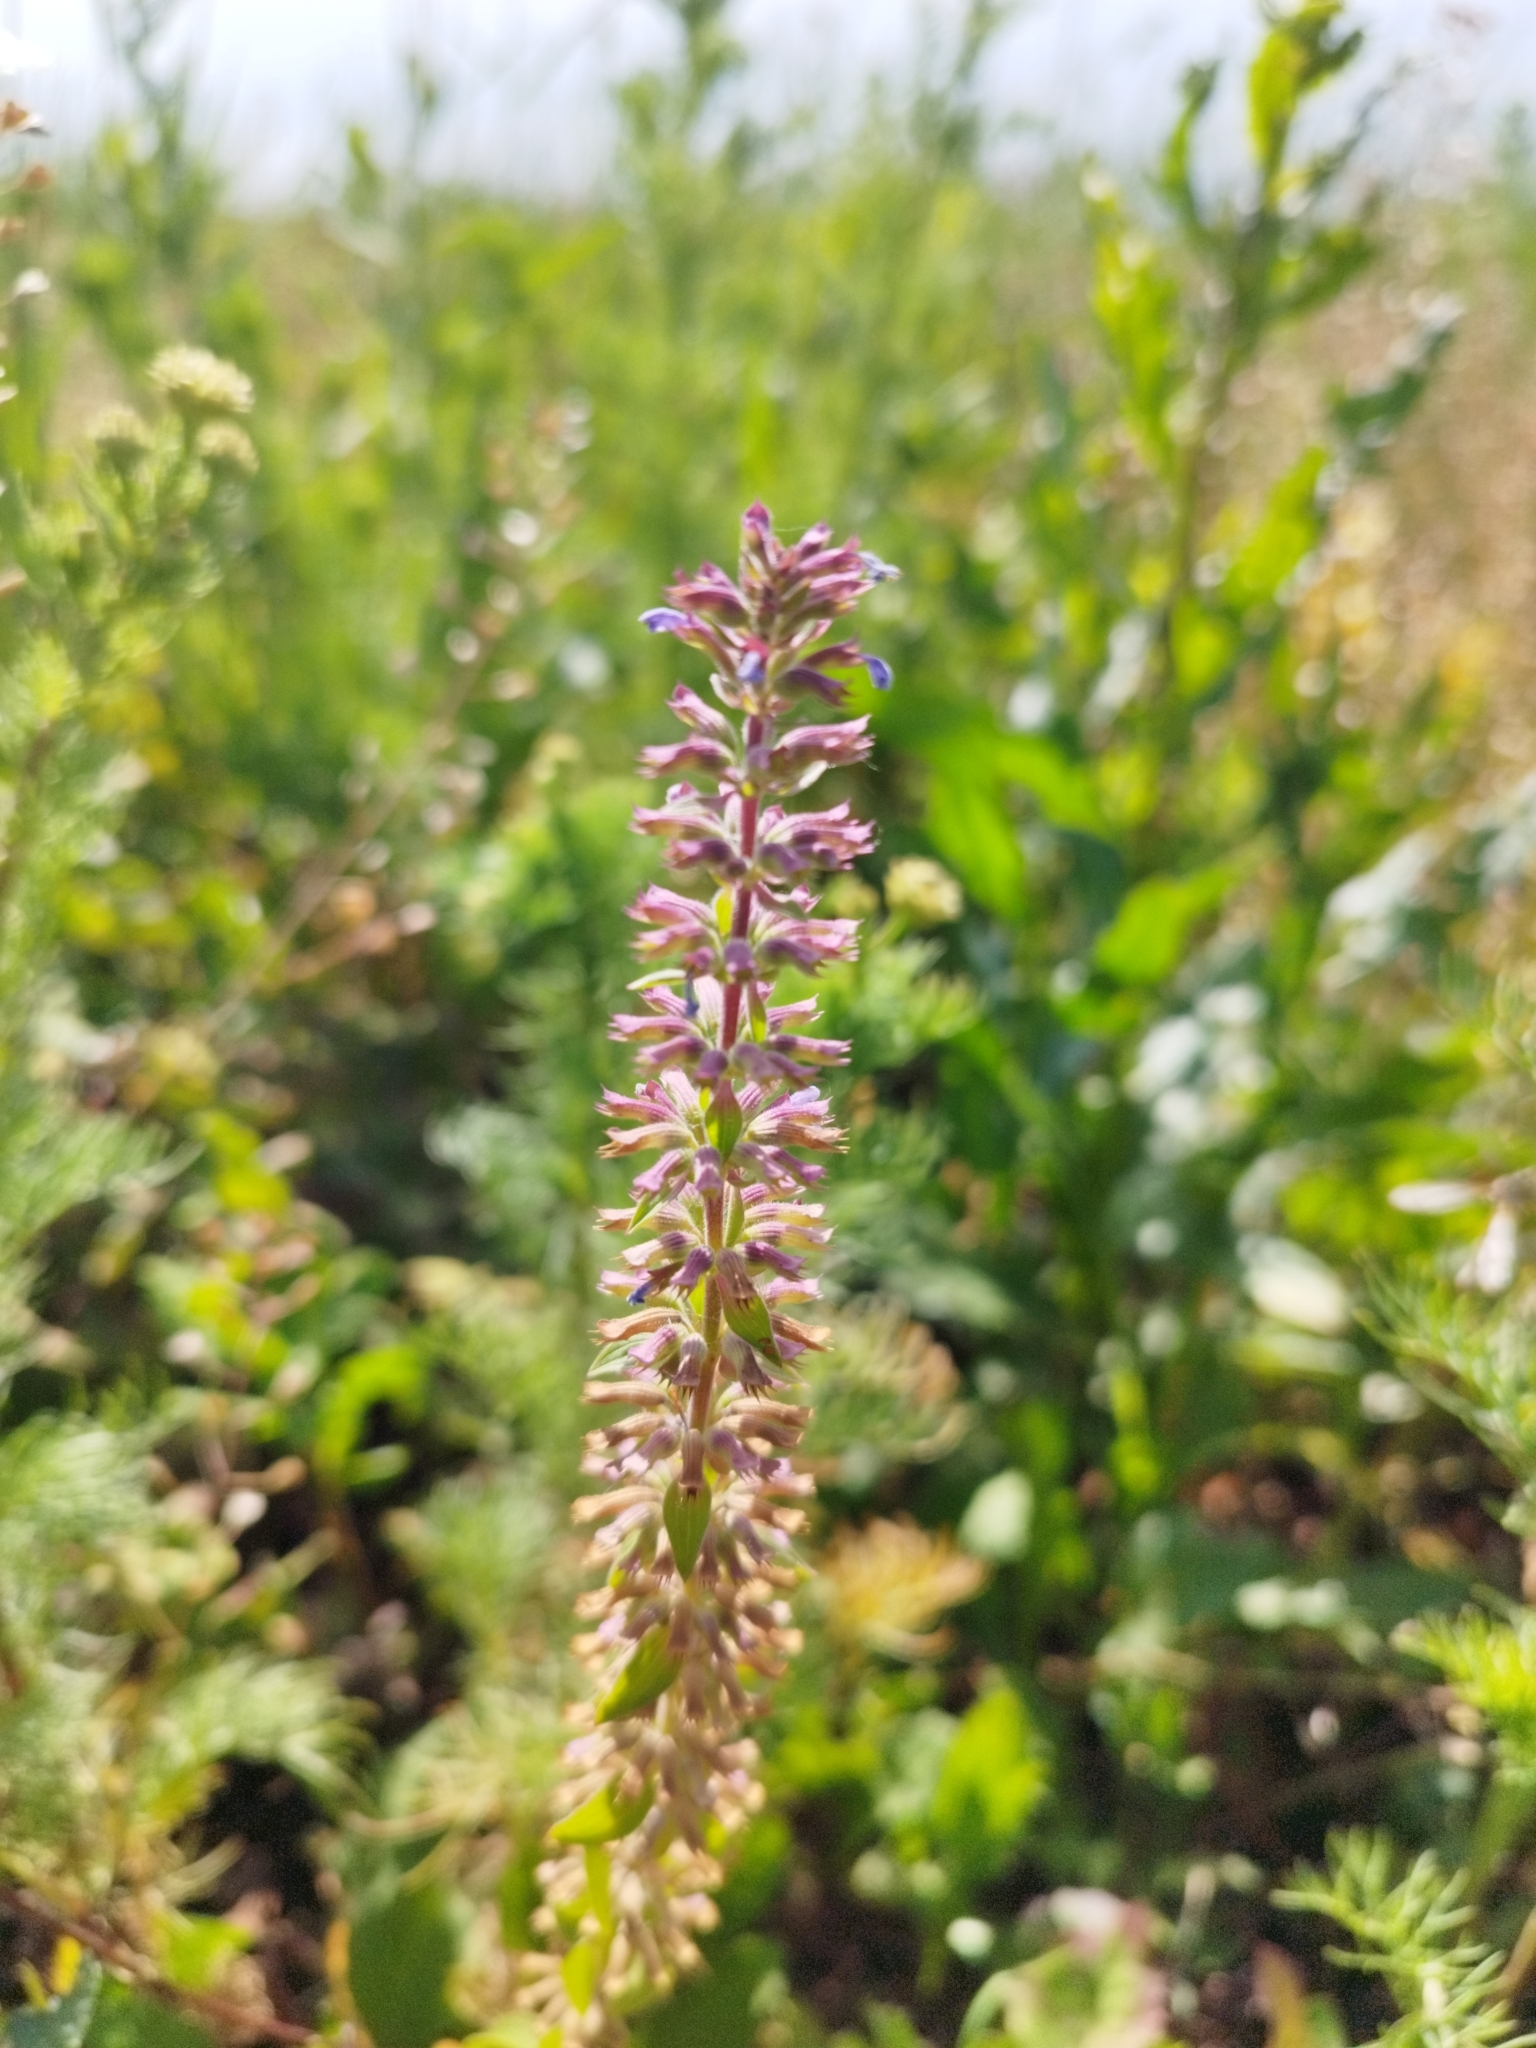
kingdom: Plantae
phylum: Tracheophyta
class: Magnoliopsida
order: Lamiales
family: Lamiaceae
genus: Dracocephalum
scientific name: Dracocephalum thymiflorum
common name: Thymeleaf dragonhead
